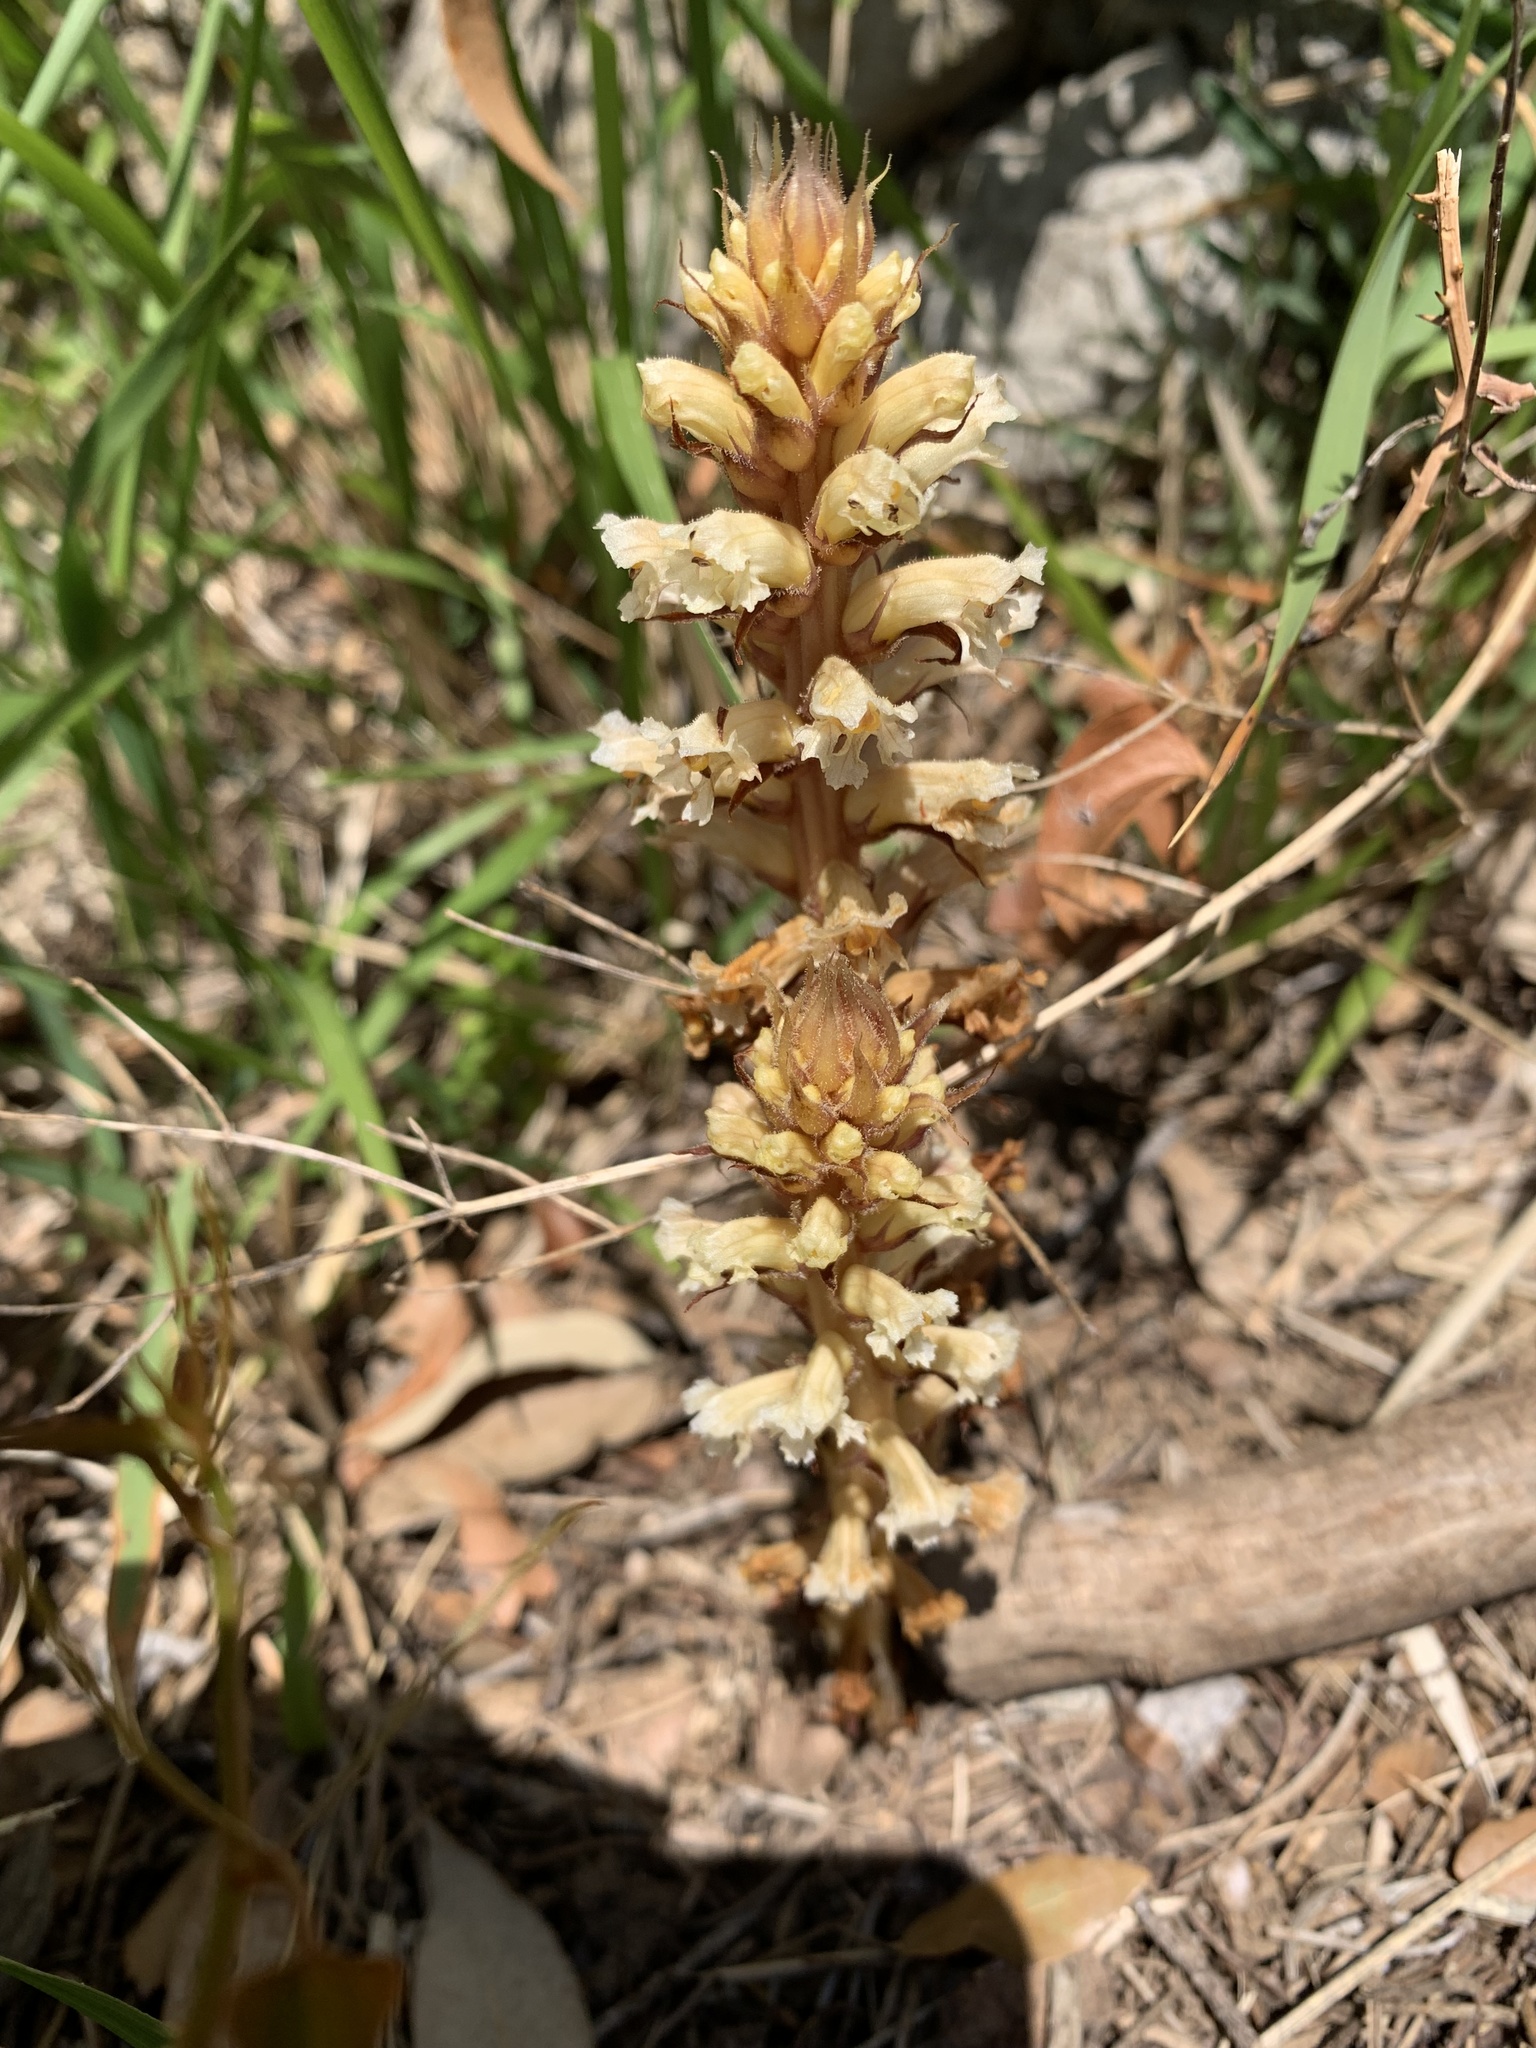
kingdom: Plantae
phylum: Tracheophyta
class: Magnoliopsida
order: Lamiales
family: Orobanchaceae
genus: Orobanche
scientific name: Orobanche hederae
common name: Ivy broomrape
